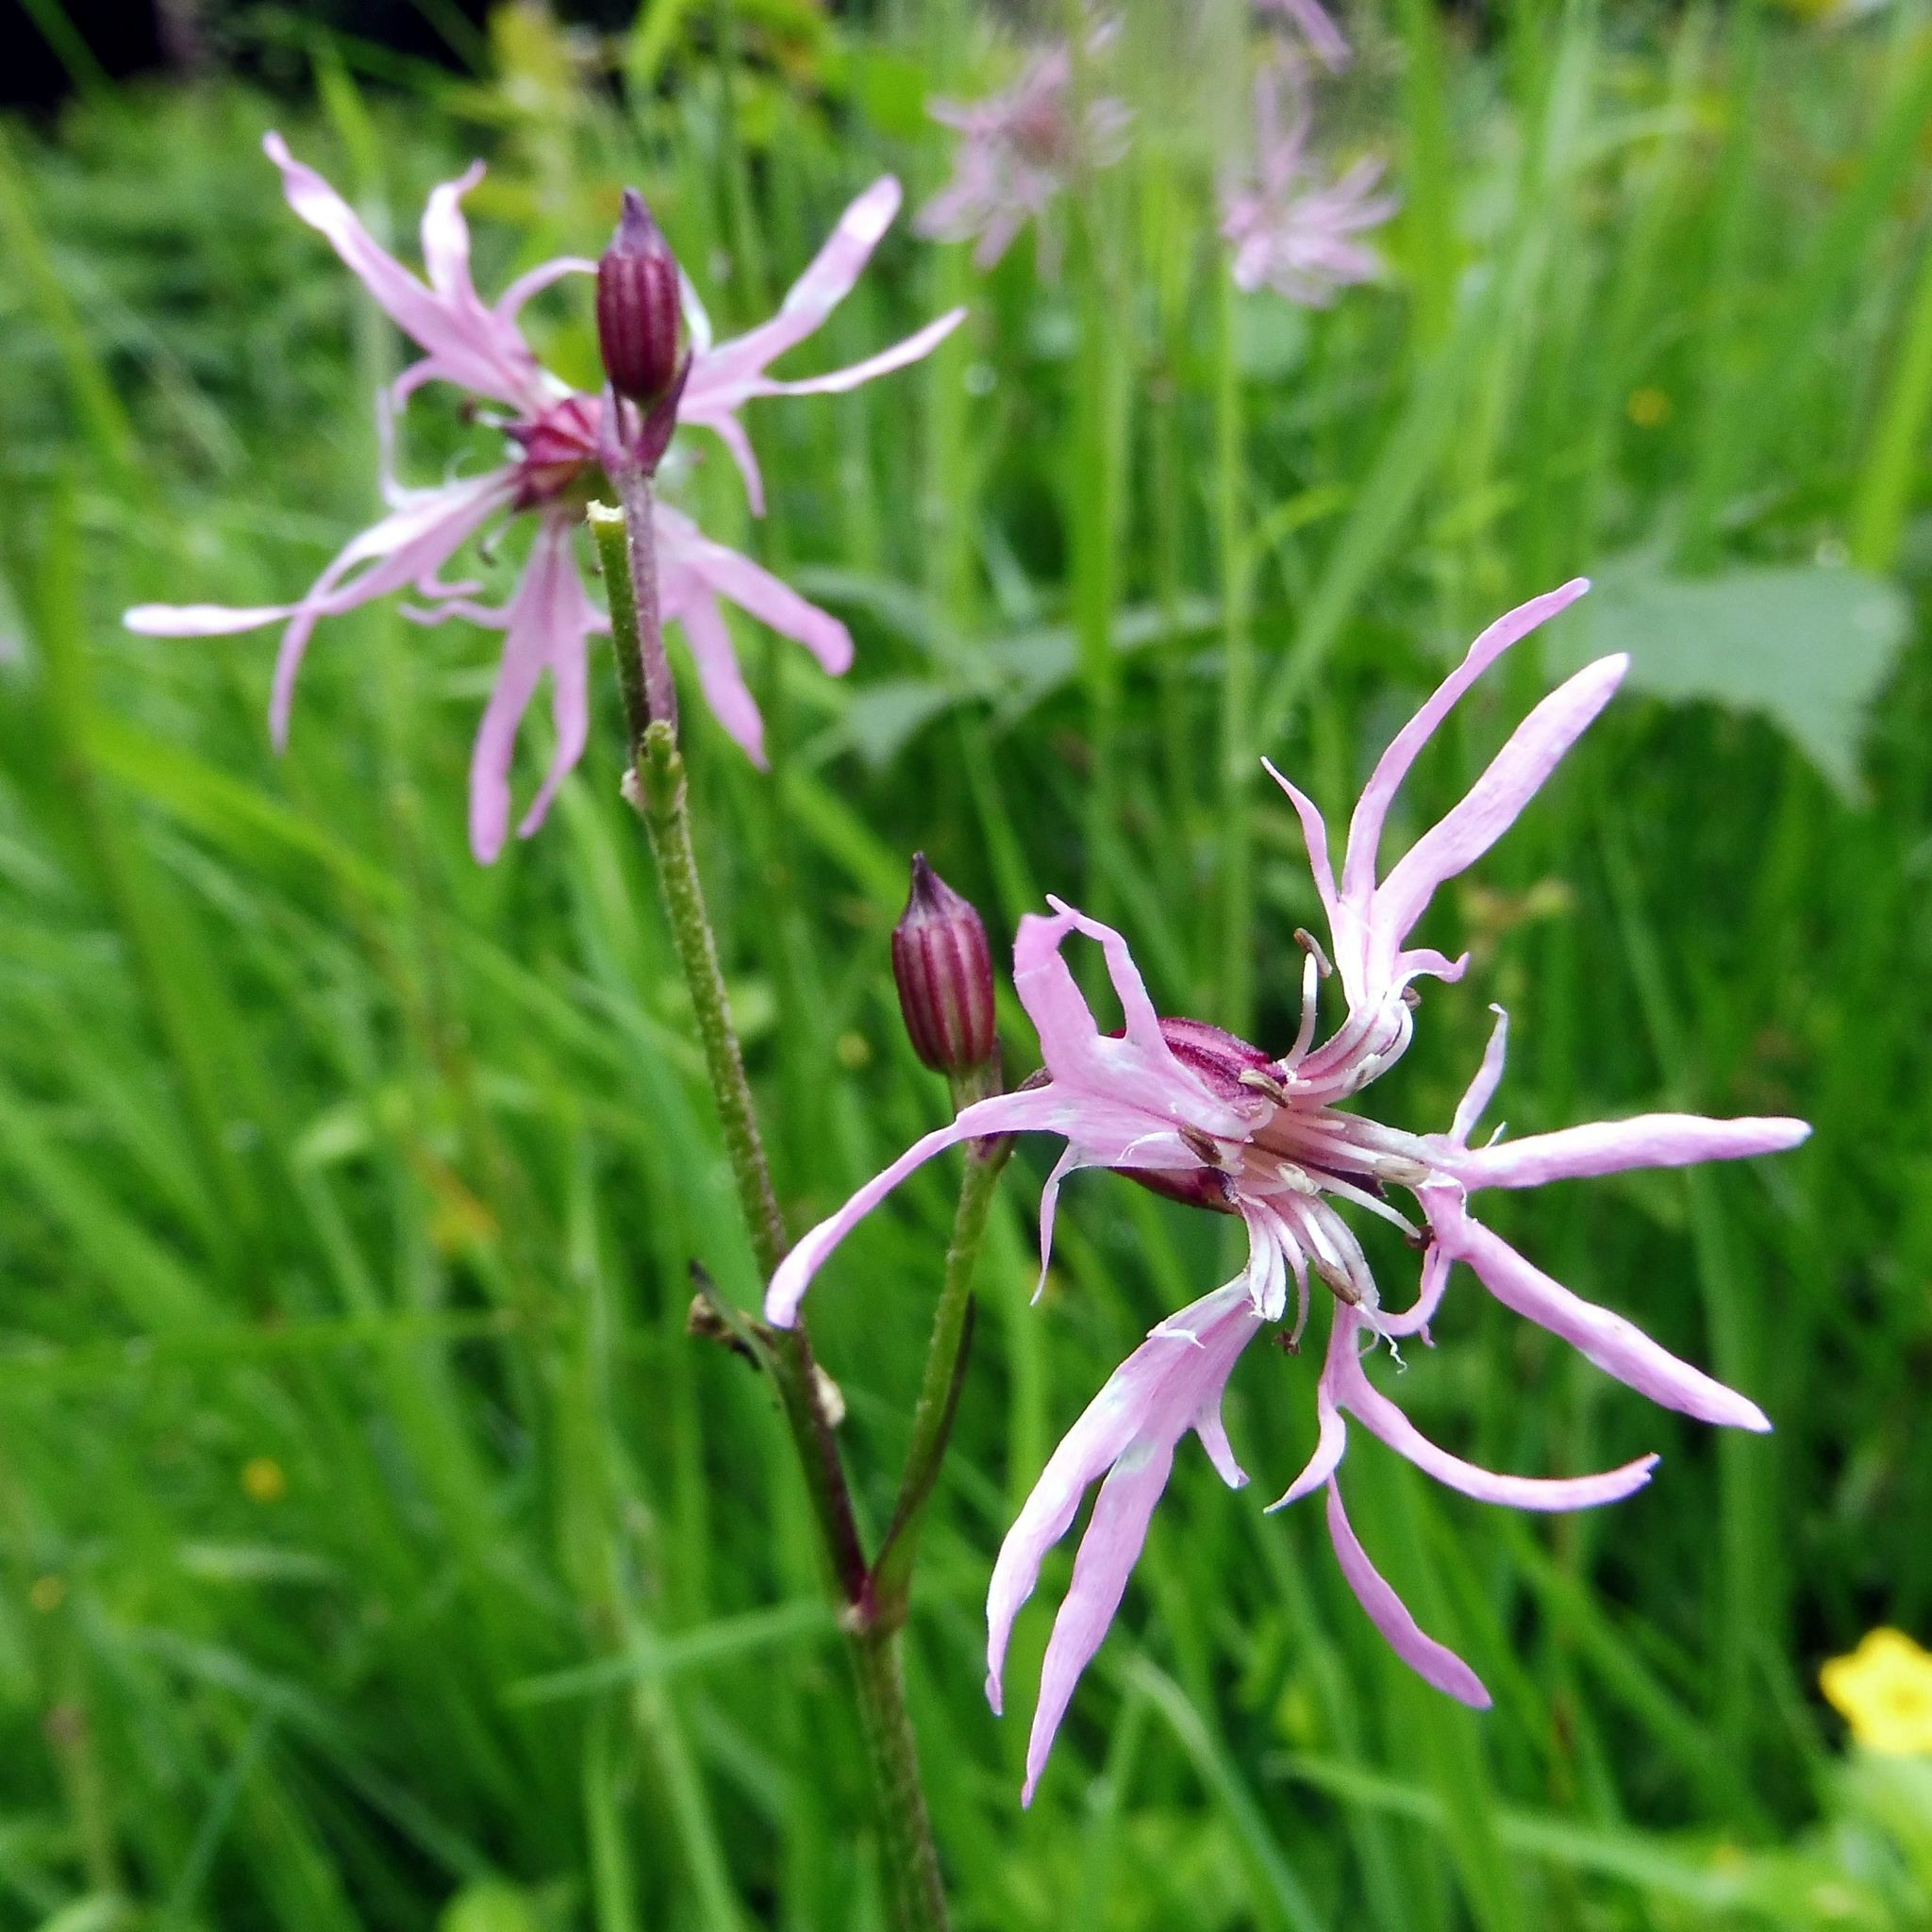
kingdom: Plantae
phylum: Tracheophyta
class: Magnoliopsida
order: Caryophyllales
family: Caryophyllaceae
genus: Silene
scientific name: Silene flos-cuculi
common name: Ragged-robin
